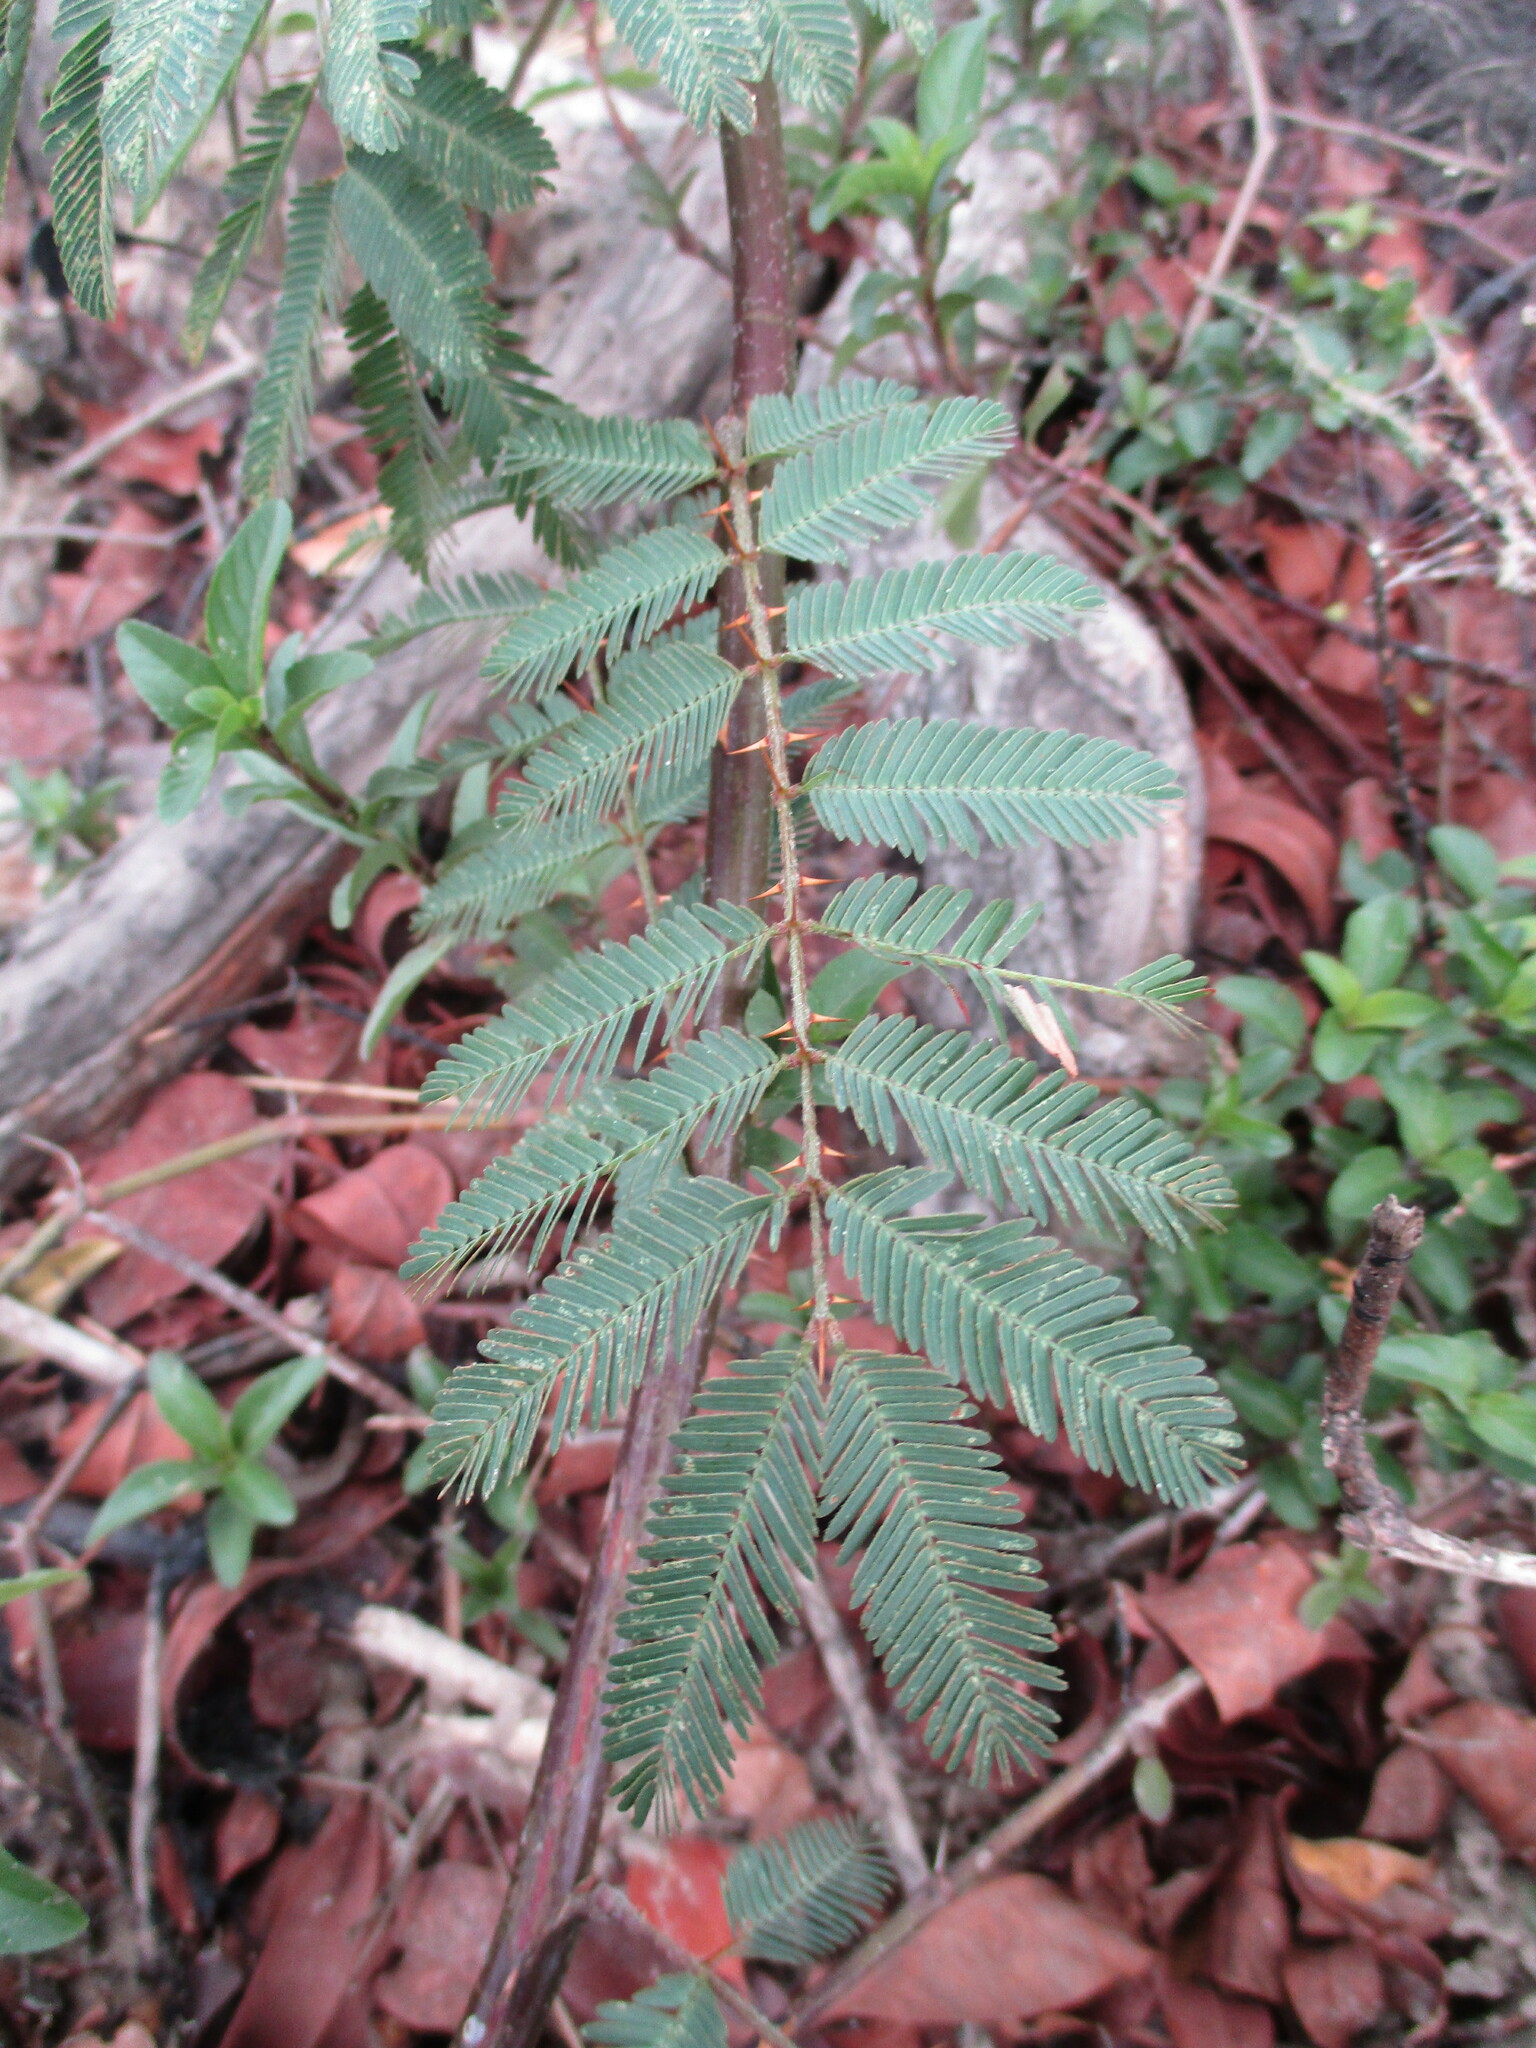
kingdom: Plantae
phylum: Tracheophyta
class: Magnoliopsida
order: Fabales
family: Fabaceae
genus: Mimosa
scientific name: Mimosa pigra
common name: Black mimosa
